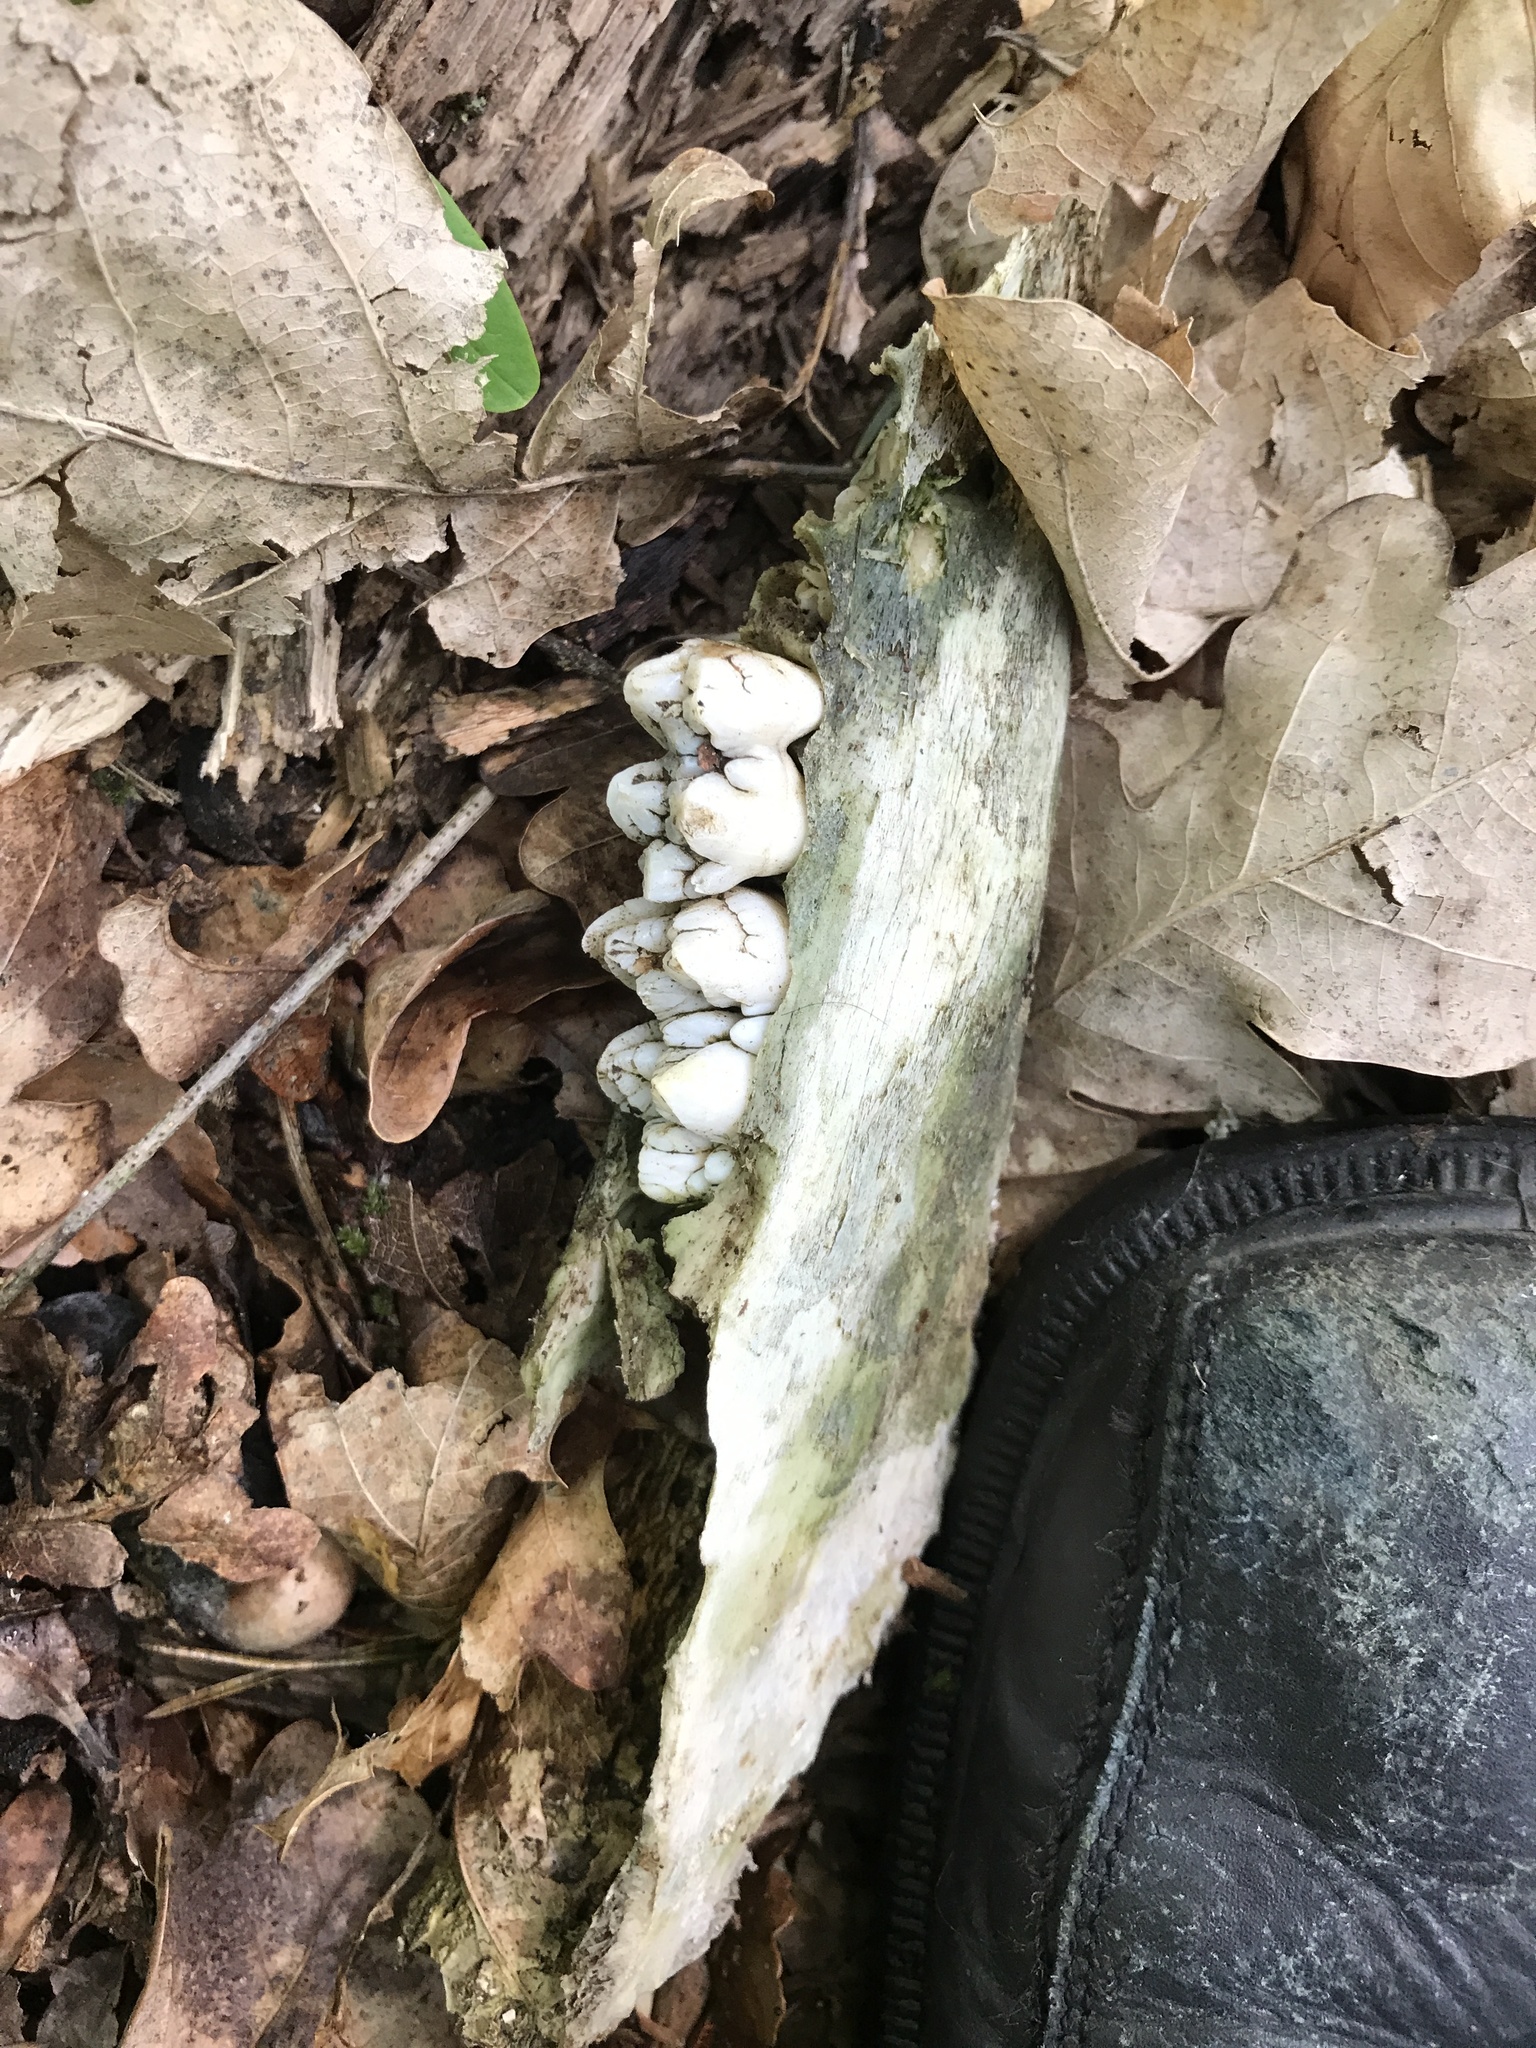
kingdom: Animalia
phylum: Chordata
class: Mammalia
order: Artiodactyla
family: Suidae
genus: Sus
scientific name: Sus scrofa
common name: Wild boar
